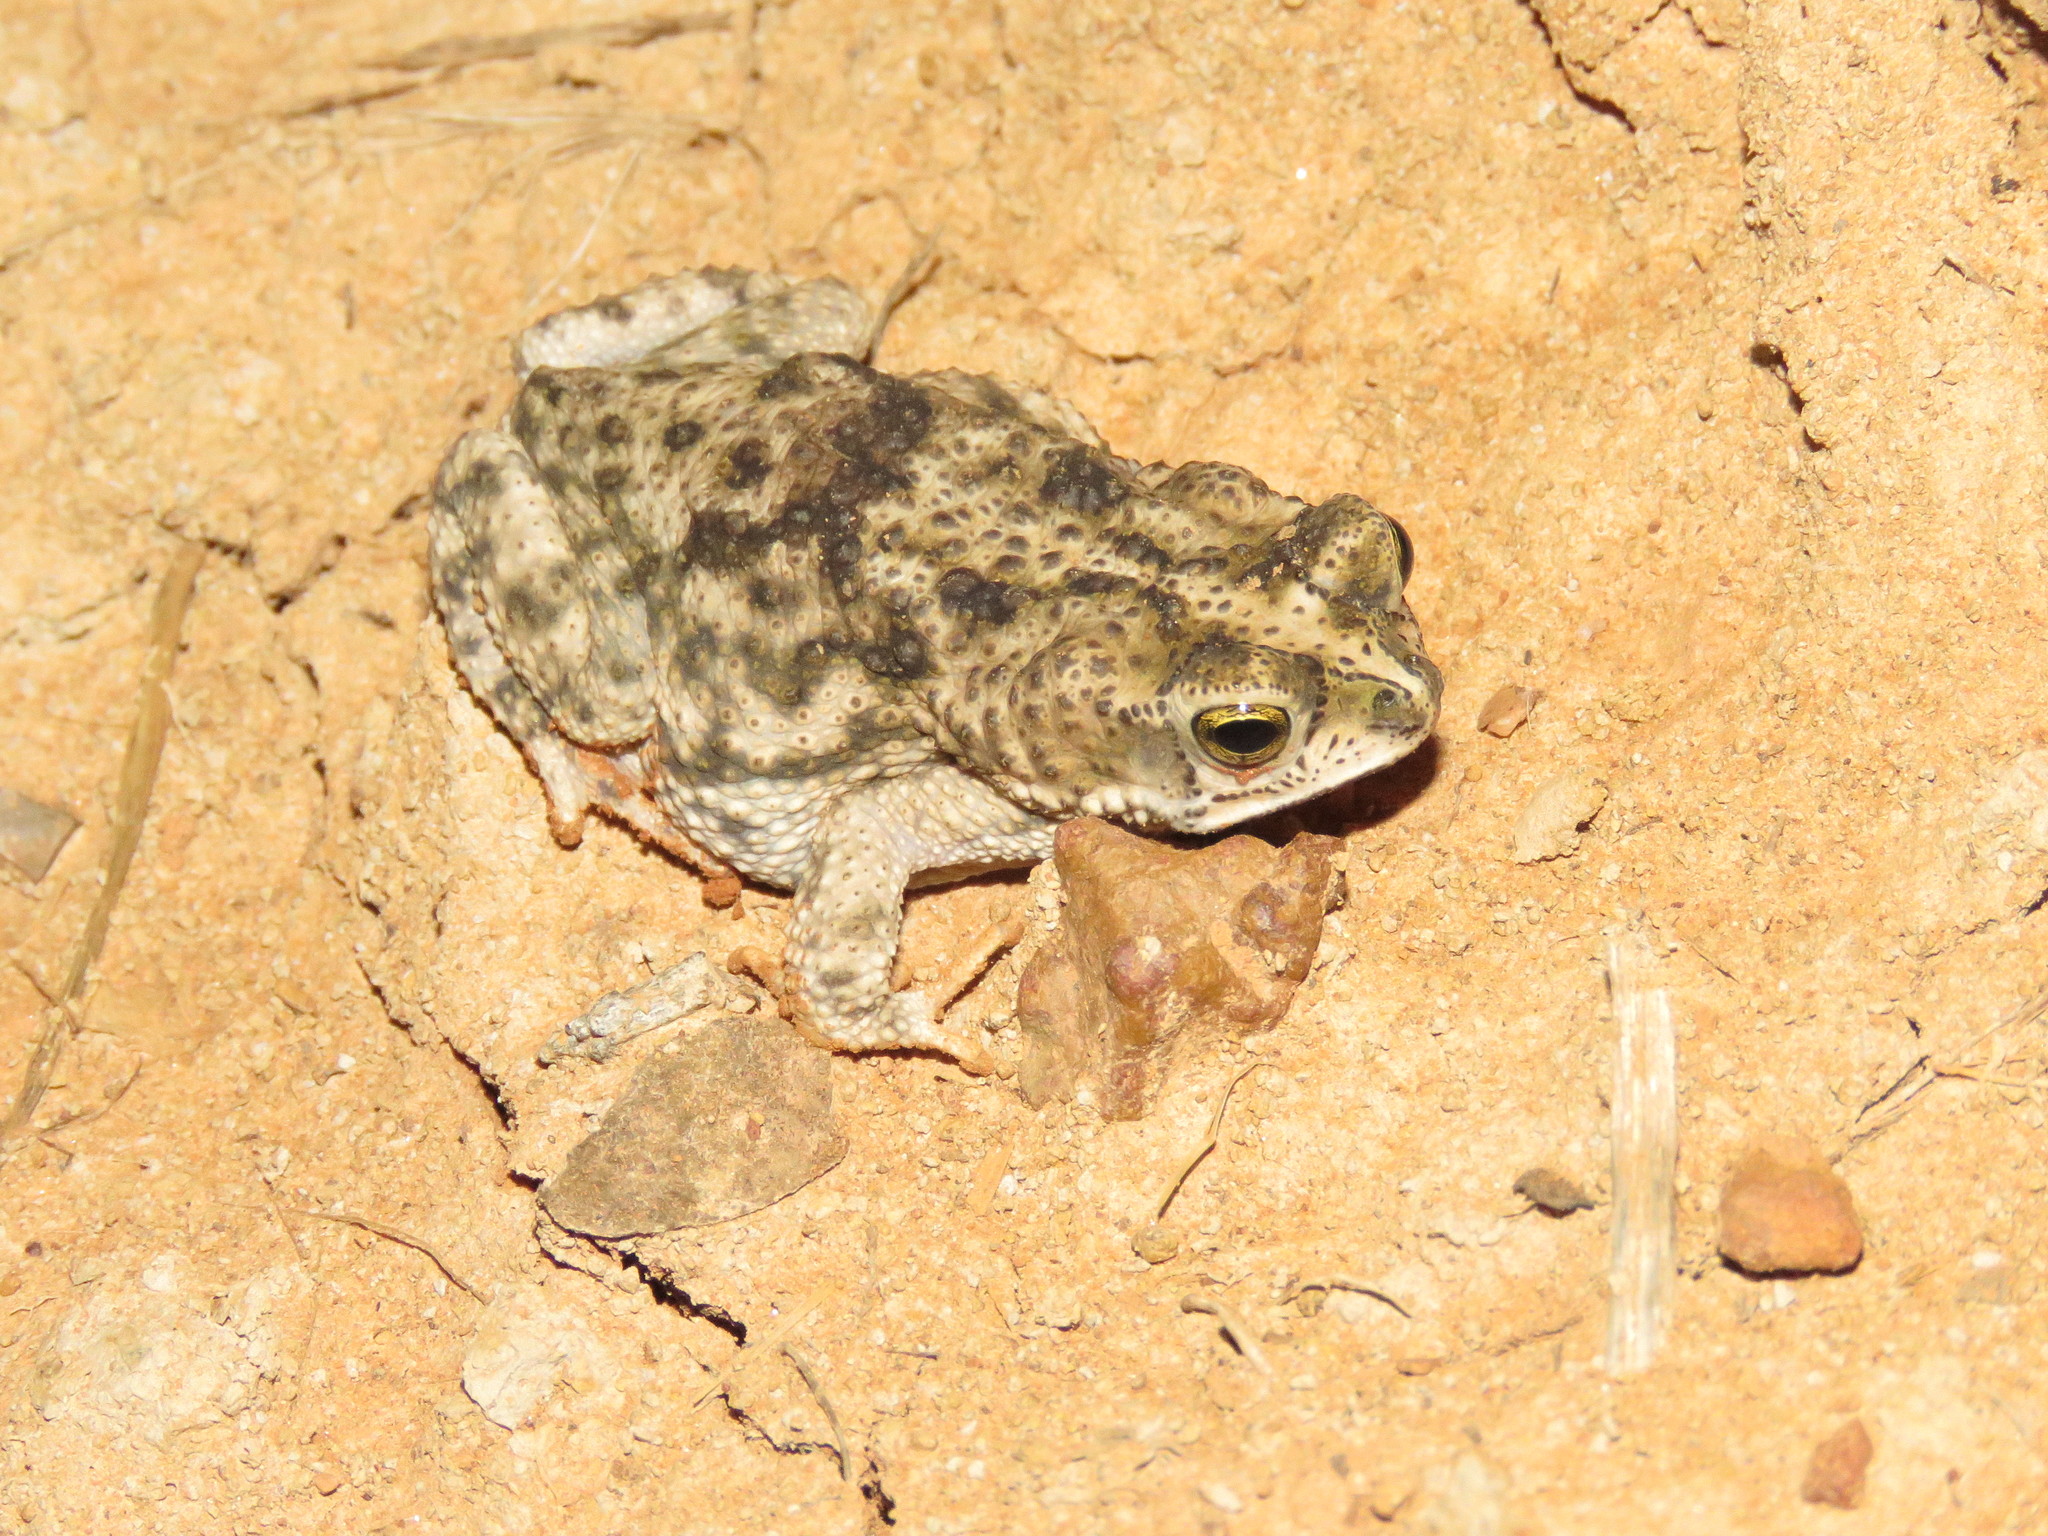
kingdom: Animalia
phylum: Chordata
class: Amphibia
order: Anura
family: Bufonidae
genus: Rhinella
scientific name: Rhinella major
